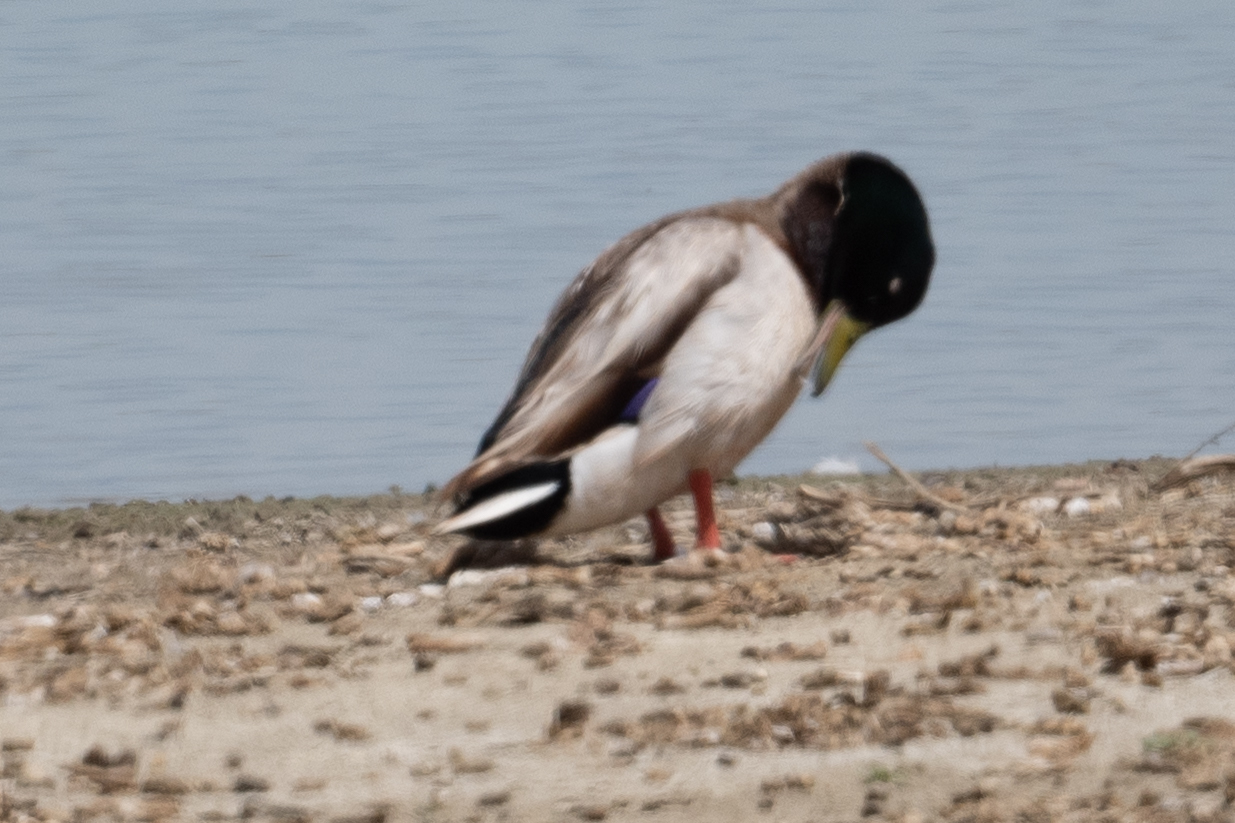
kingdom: Animalia
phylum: Chordata
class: Aves
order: Anseriformes
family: Anatidae
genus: Anas
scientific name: Anas platyrhynchos
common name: Mallard
